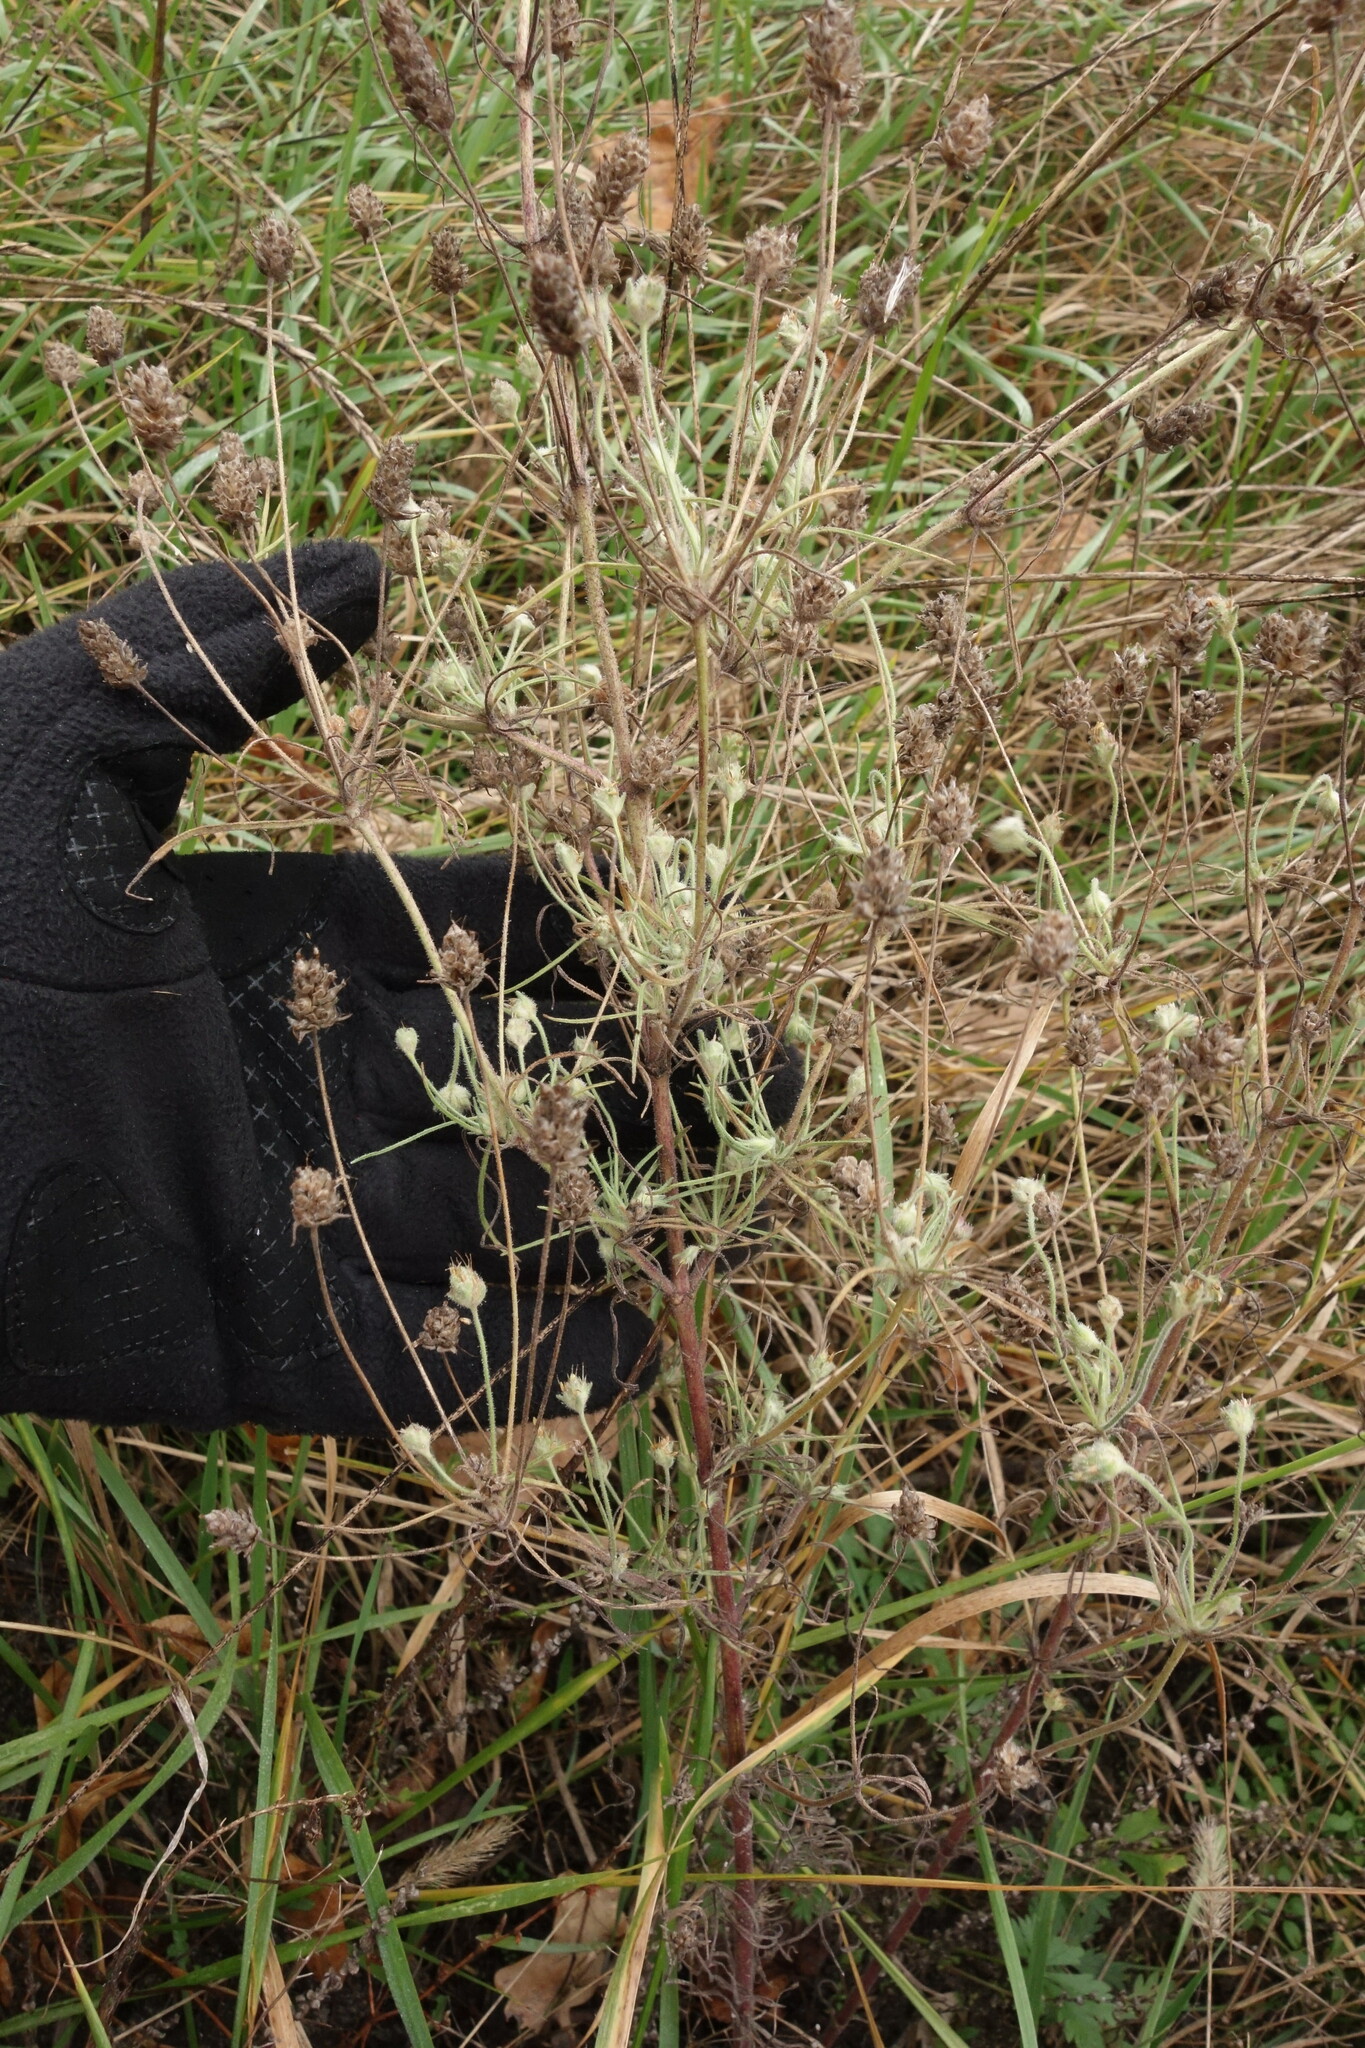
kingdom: Plantae
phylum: Tracheophyta
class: Magnoliopsida
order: Lamiales
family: Plantaginaceae
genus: Plantago
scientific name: Plantago arenaria
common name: Branched plantain
